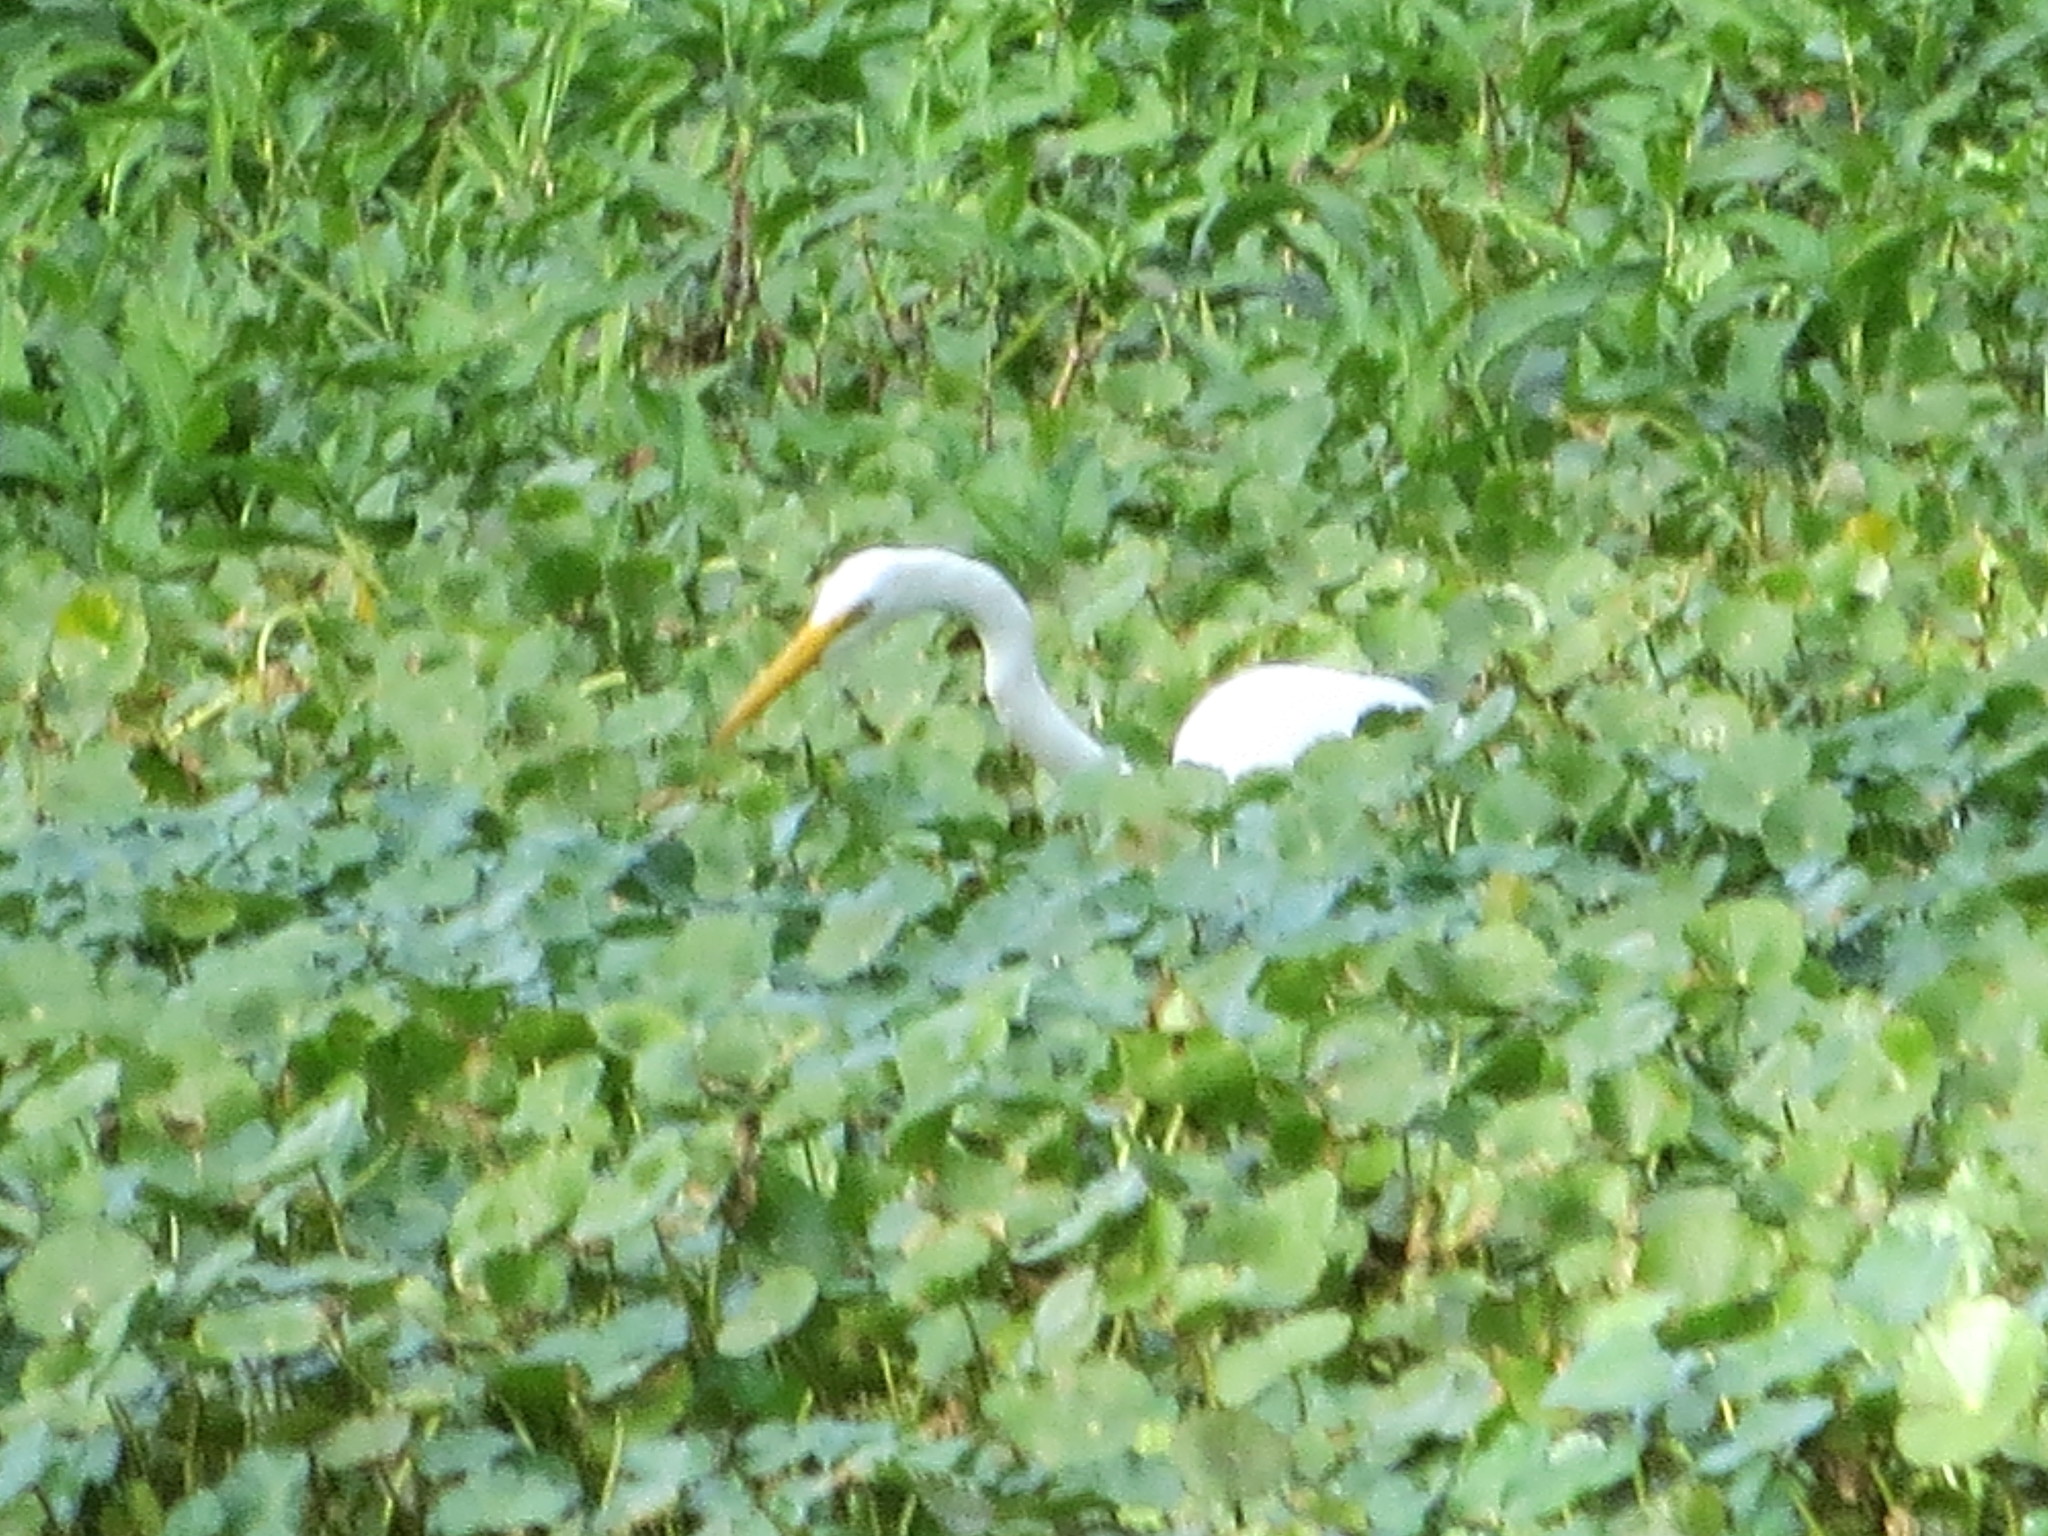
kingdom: Animalia
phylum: Chordata
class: Aves
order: Pelecaniformes
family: Ardeidae
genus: Ardea
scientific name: Ardea alba
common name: Great egret
